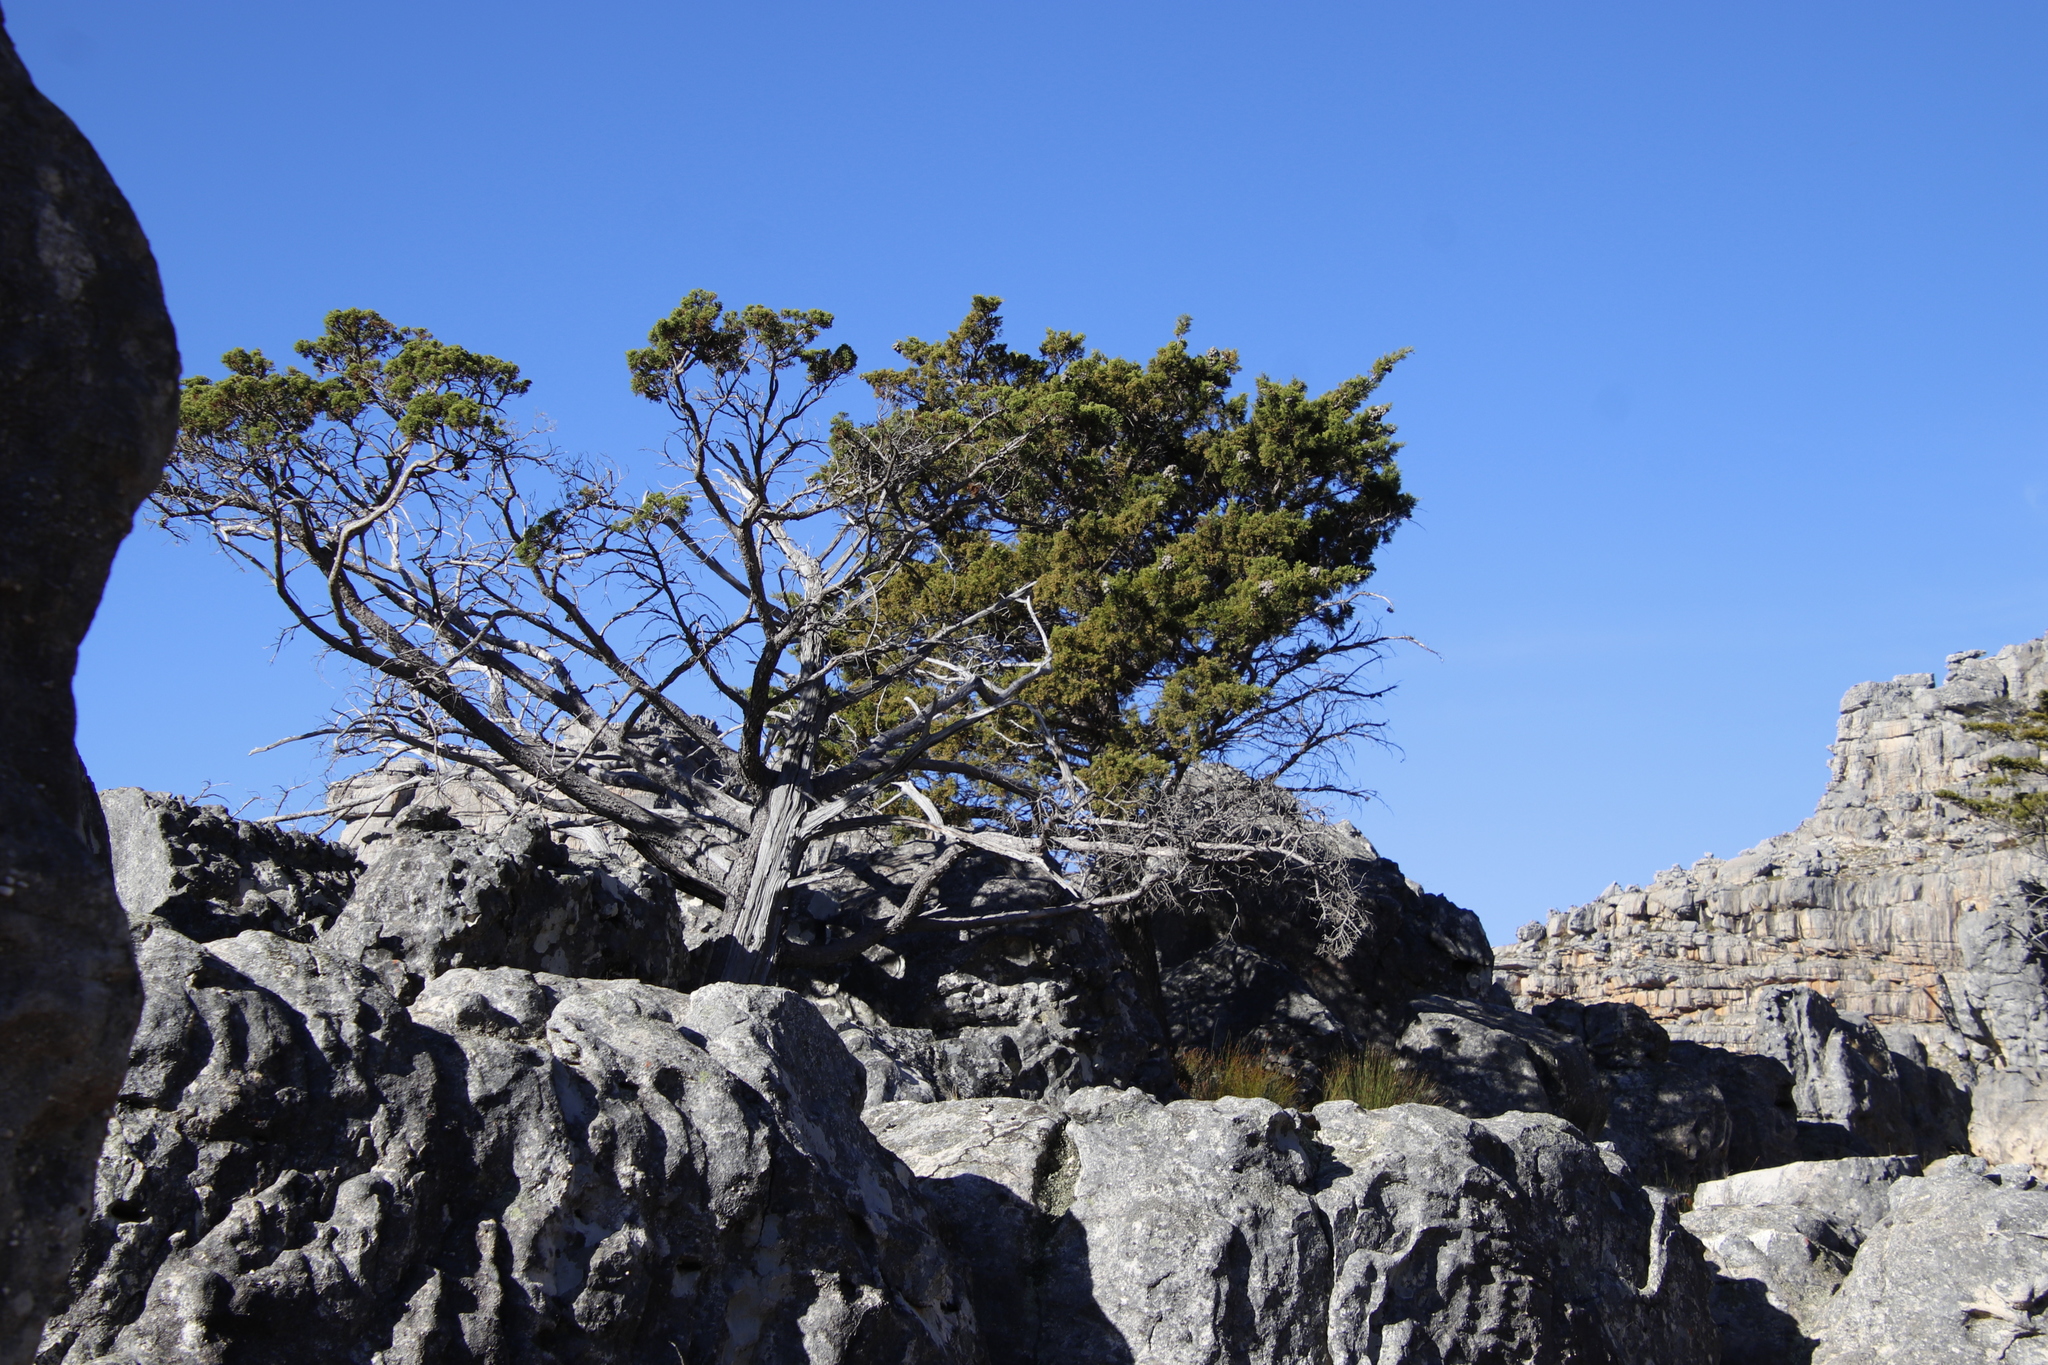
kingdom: Plantae
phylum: Tracheophyta
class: Pinopsida
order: Pinales
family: Cupressaceae
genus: Widdringtonia
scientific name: Widdringtonia nodiflora
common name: Cape cypress
